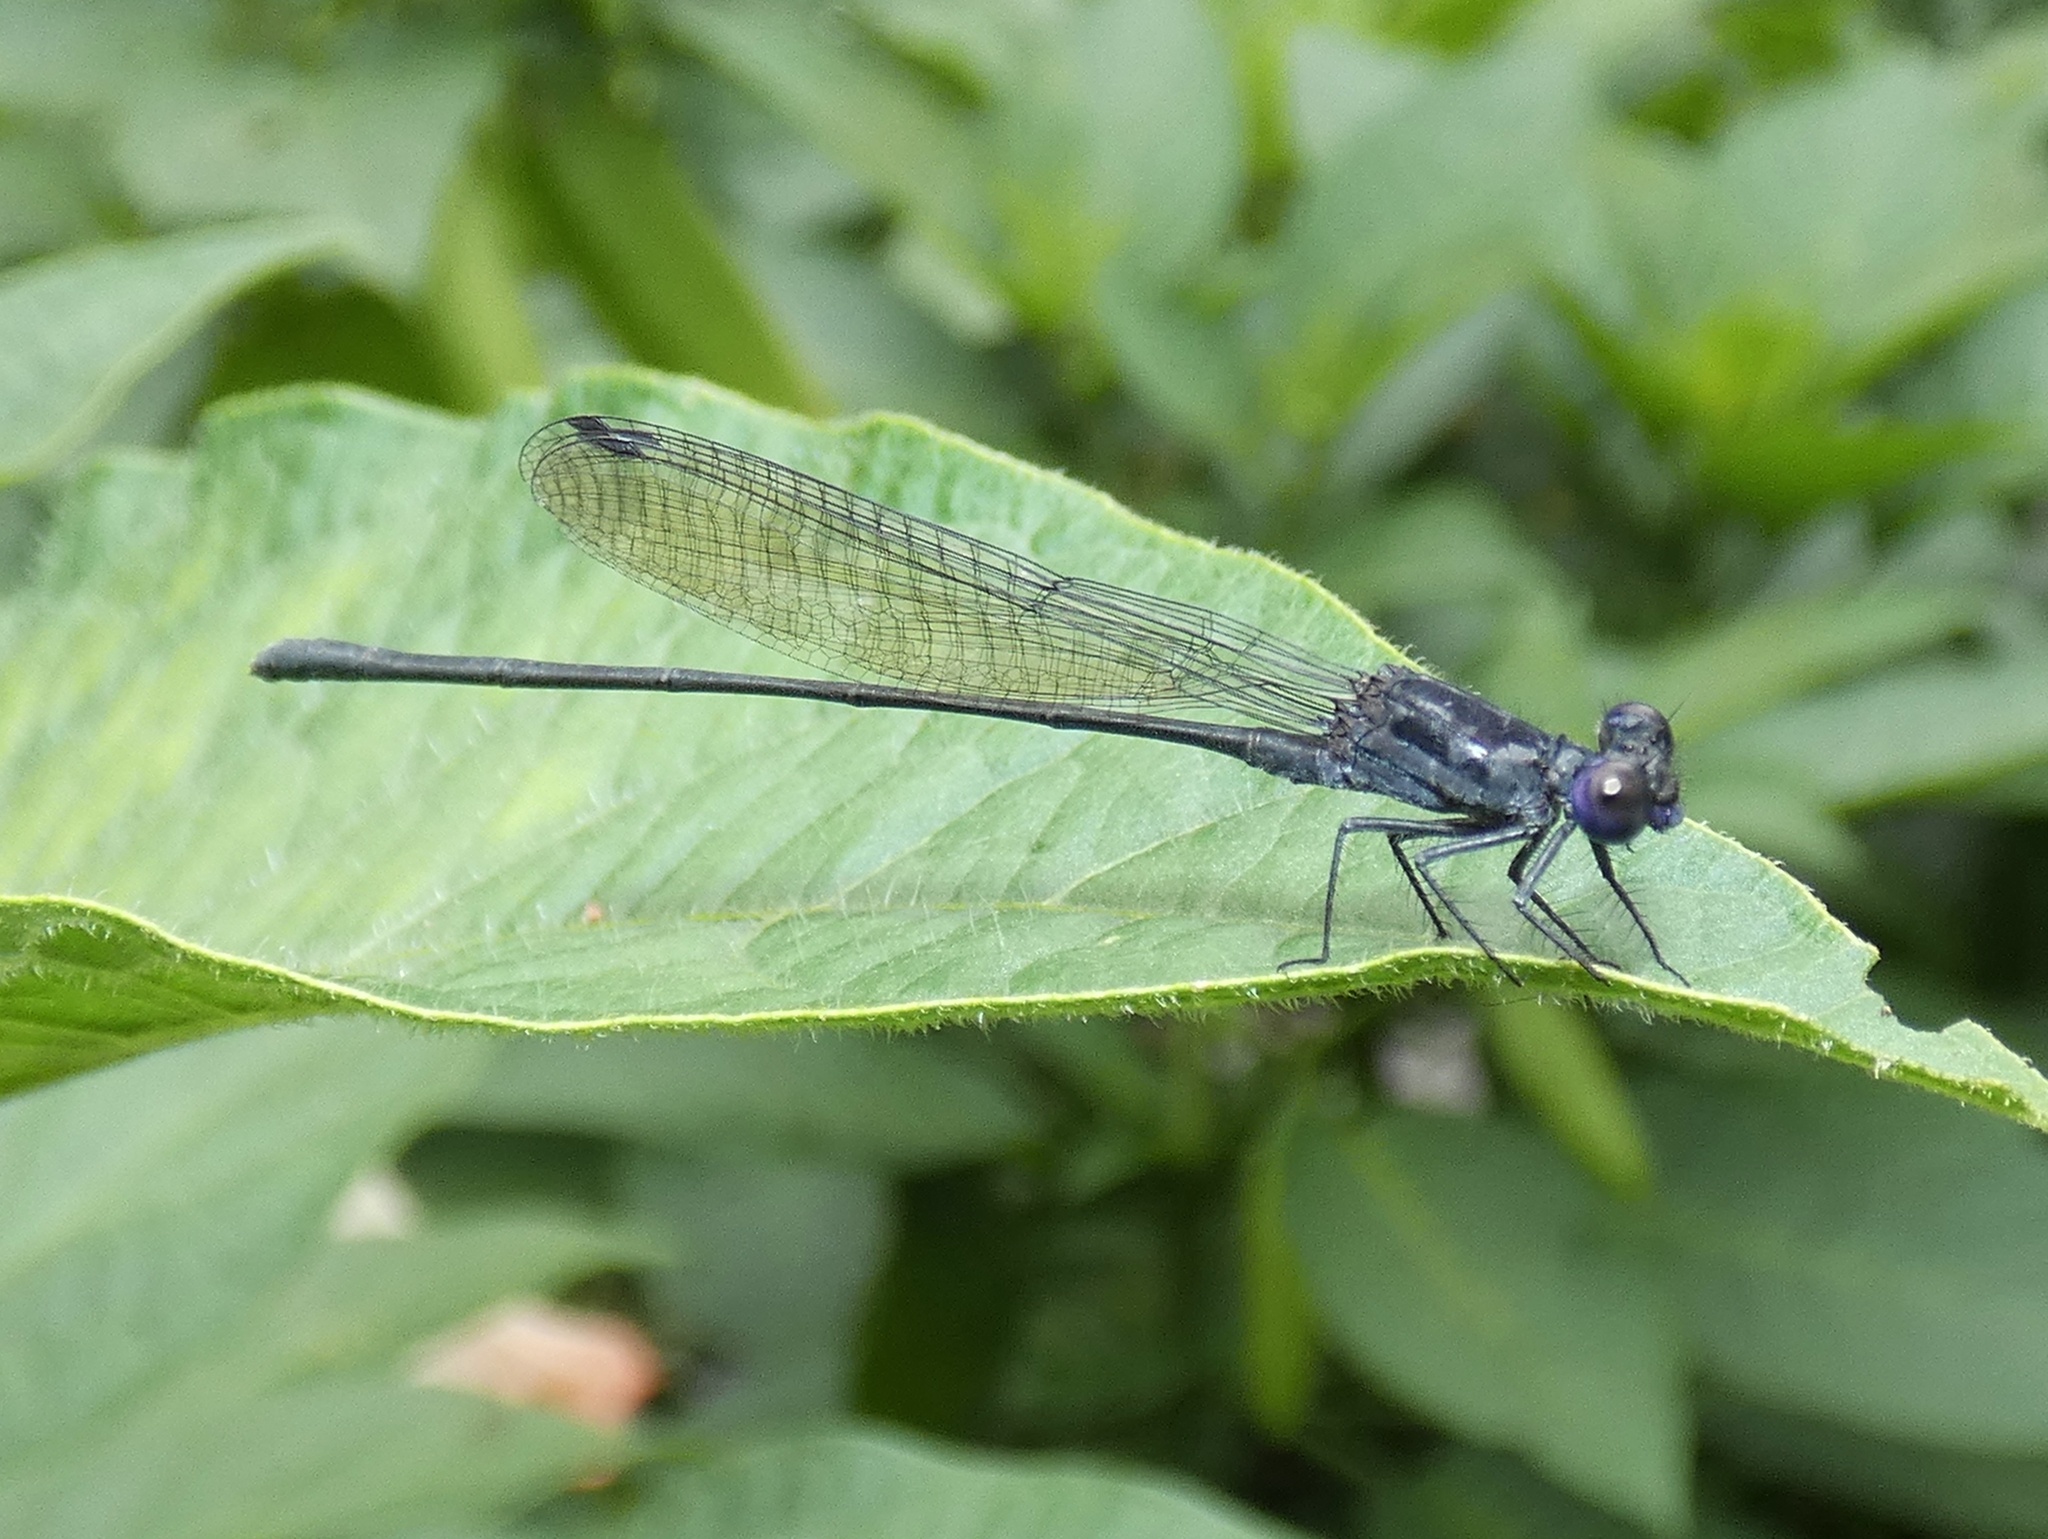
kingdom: Animalia
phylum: Arthropoda
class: Insecta
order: Odonata
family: Coenagrionidae
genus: Argia
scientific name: Argia translata
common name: Dusky dancer
